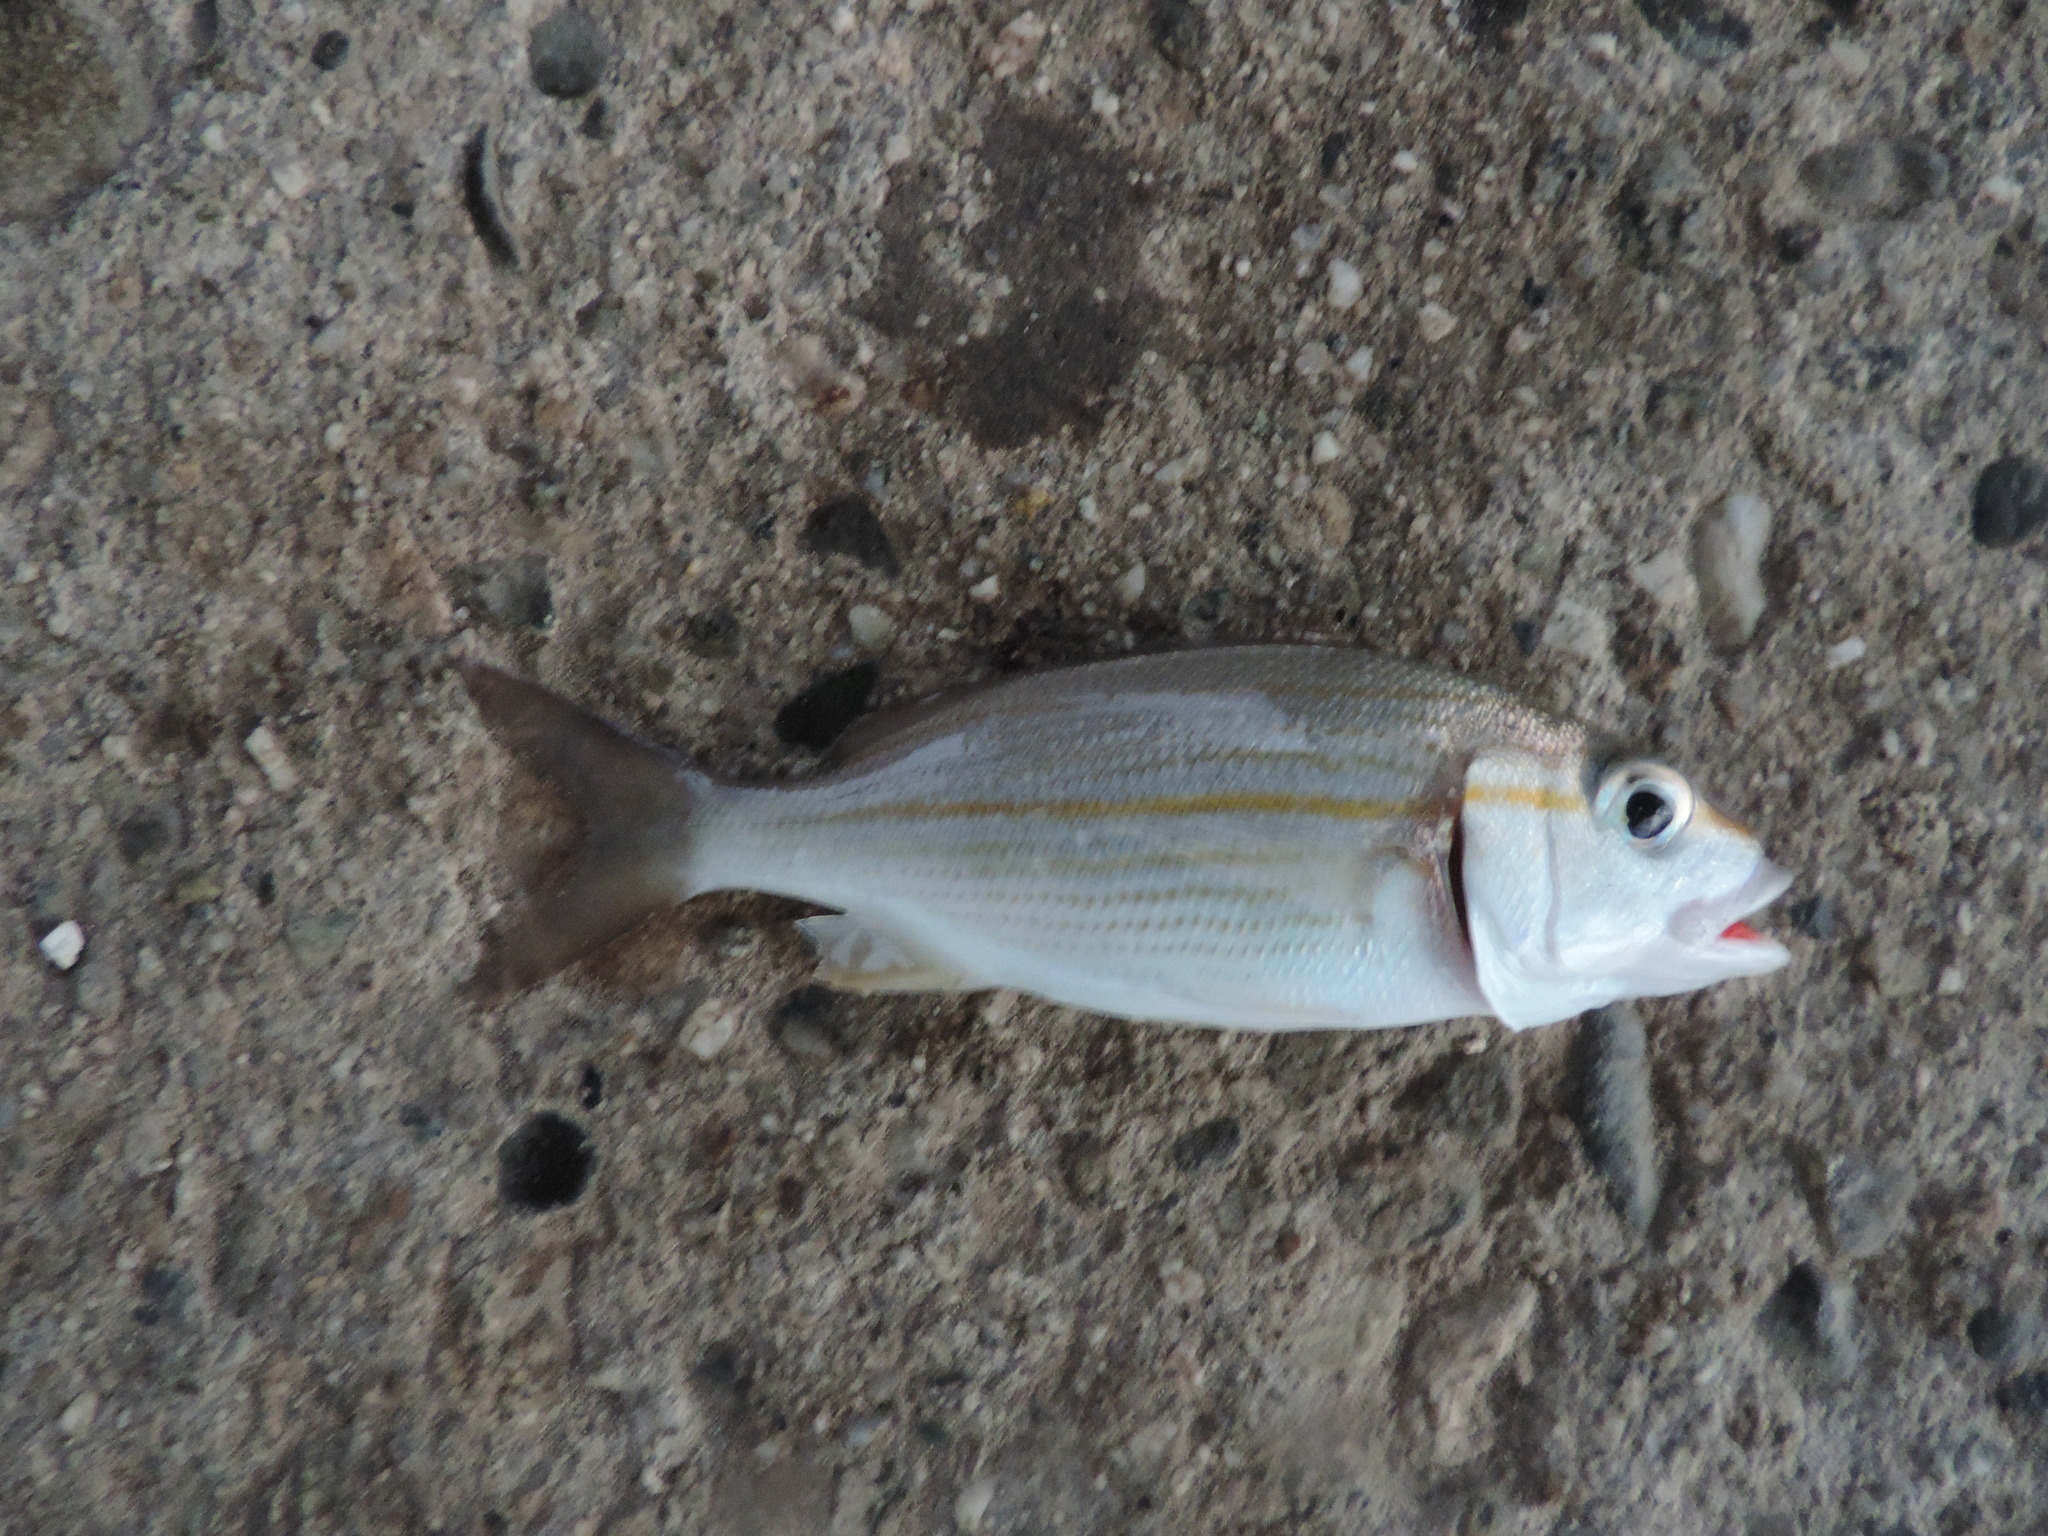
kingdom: Animalia
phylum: Chordata
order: Perciformes
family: Haemulidae
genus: Haemulon
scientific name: Haemulon aurolineatum
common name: Tomtate
